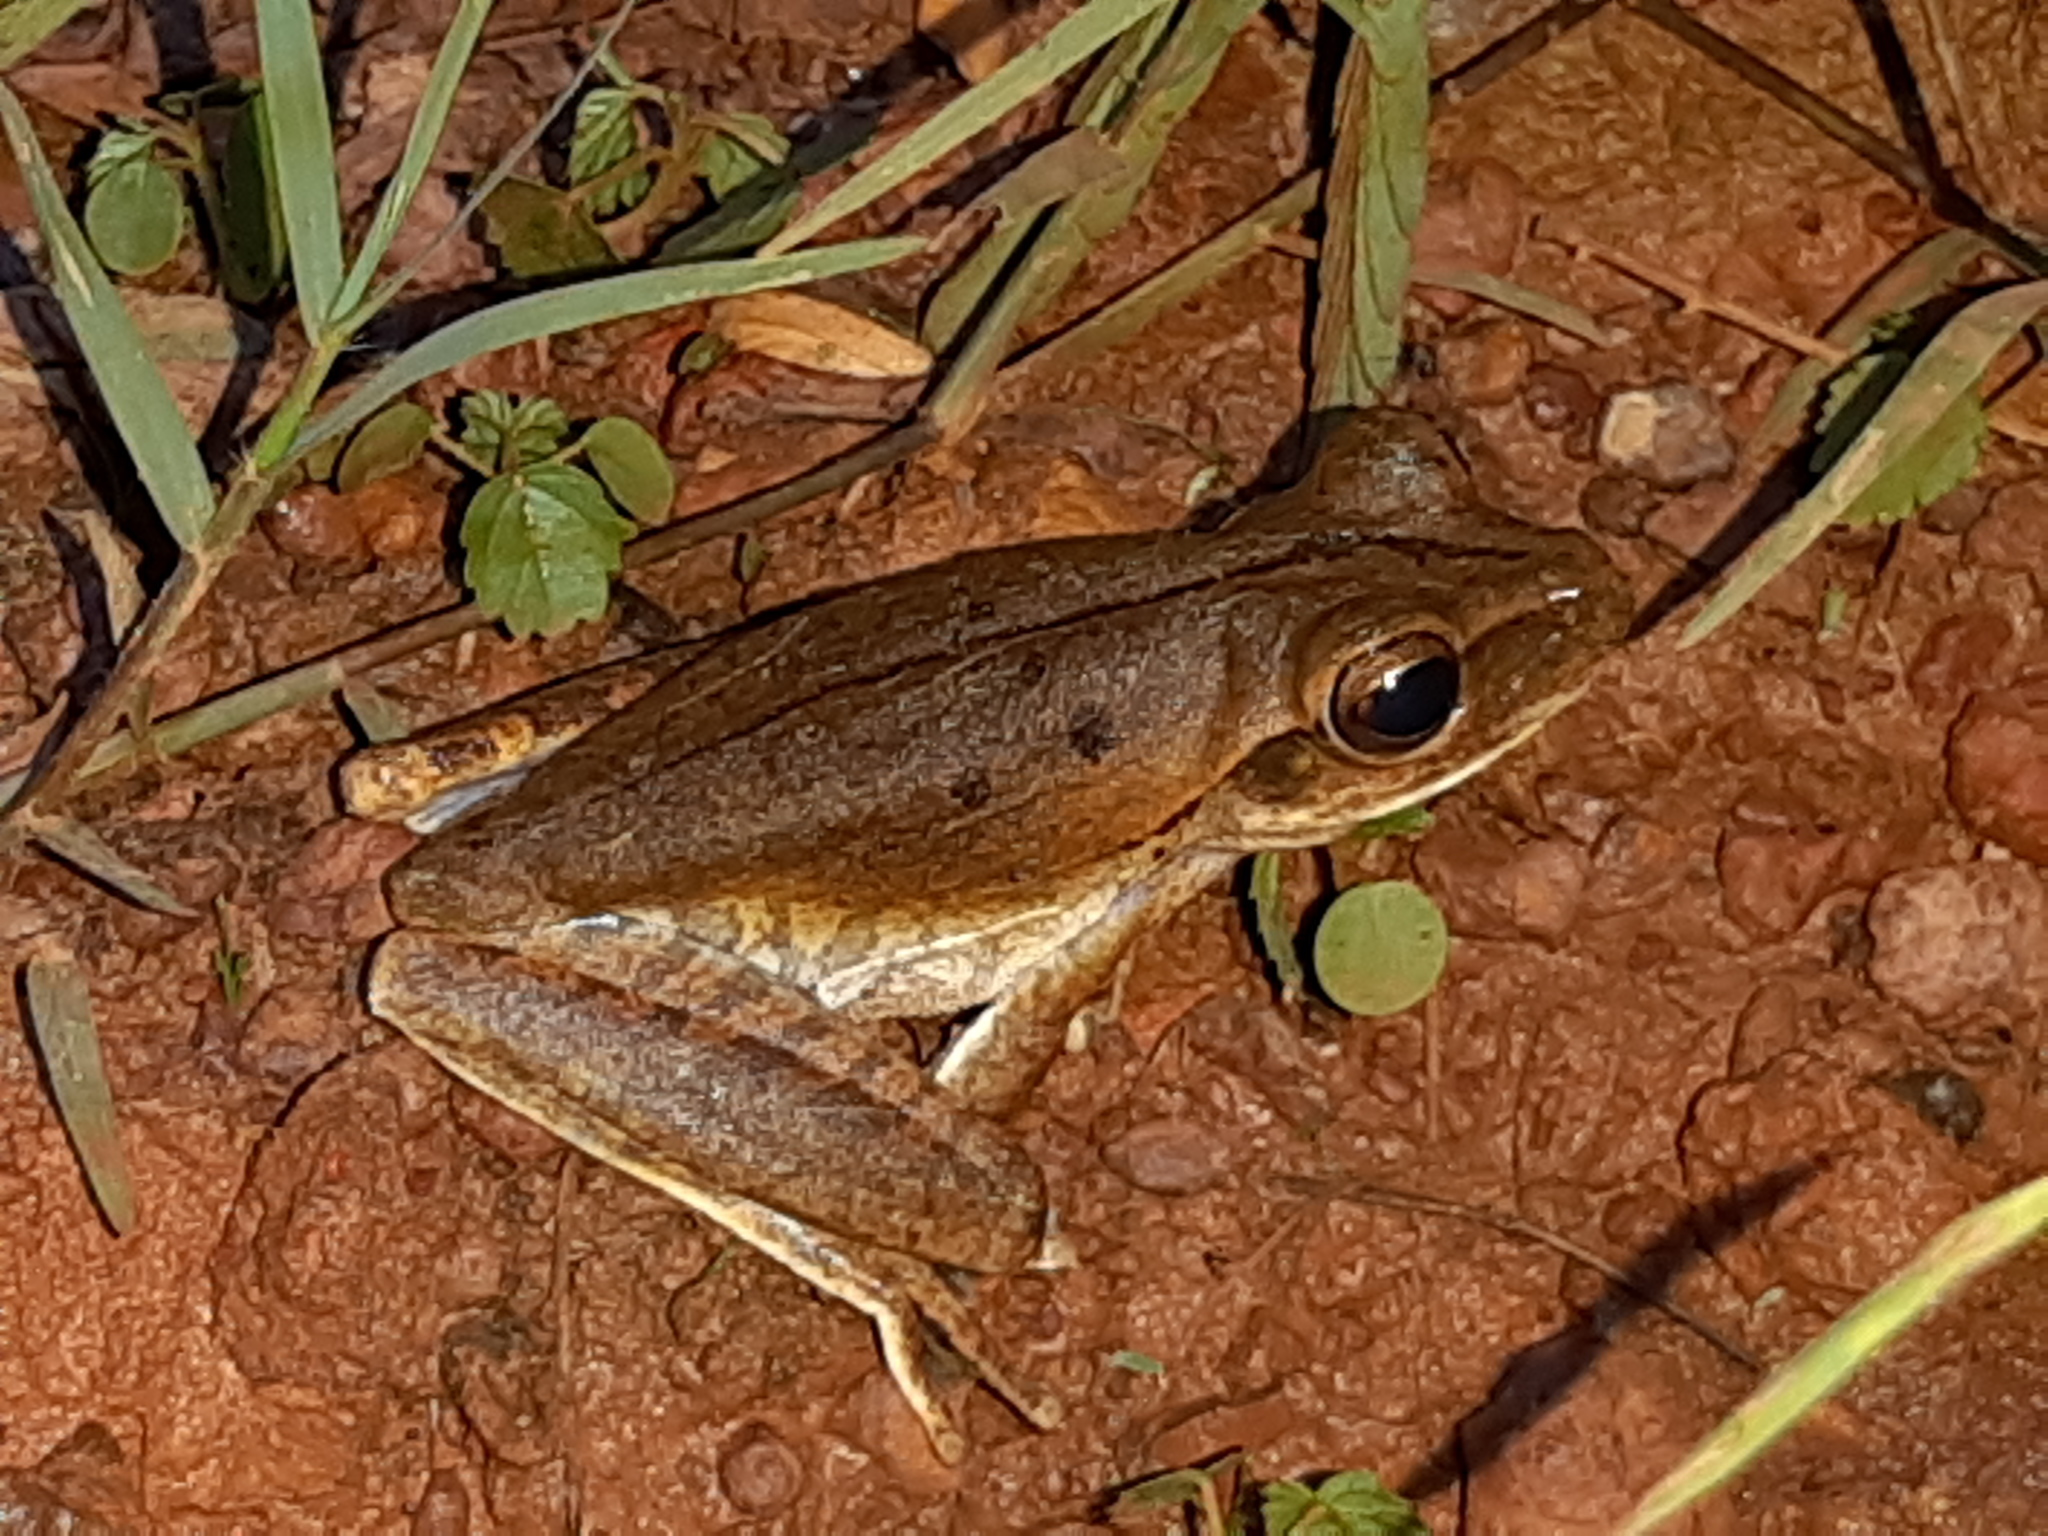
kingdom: Animalia
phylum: Chordata
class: Amphibia
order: Anura
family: Hylidae
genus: Boana
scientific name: Boana raniceps
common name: Chaco treefrog
